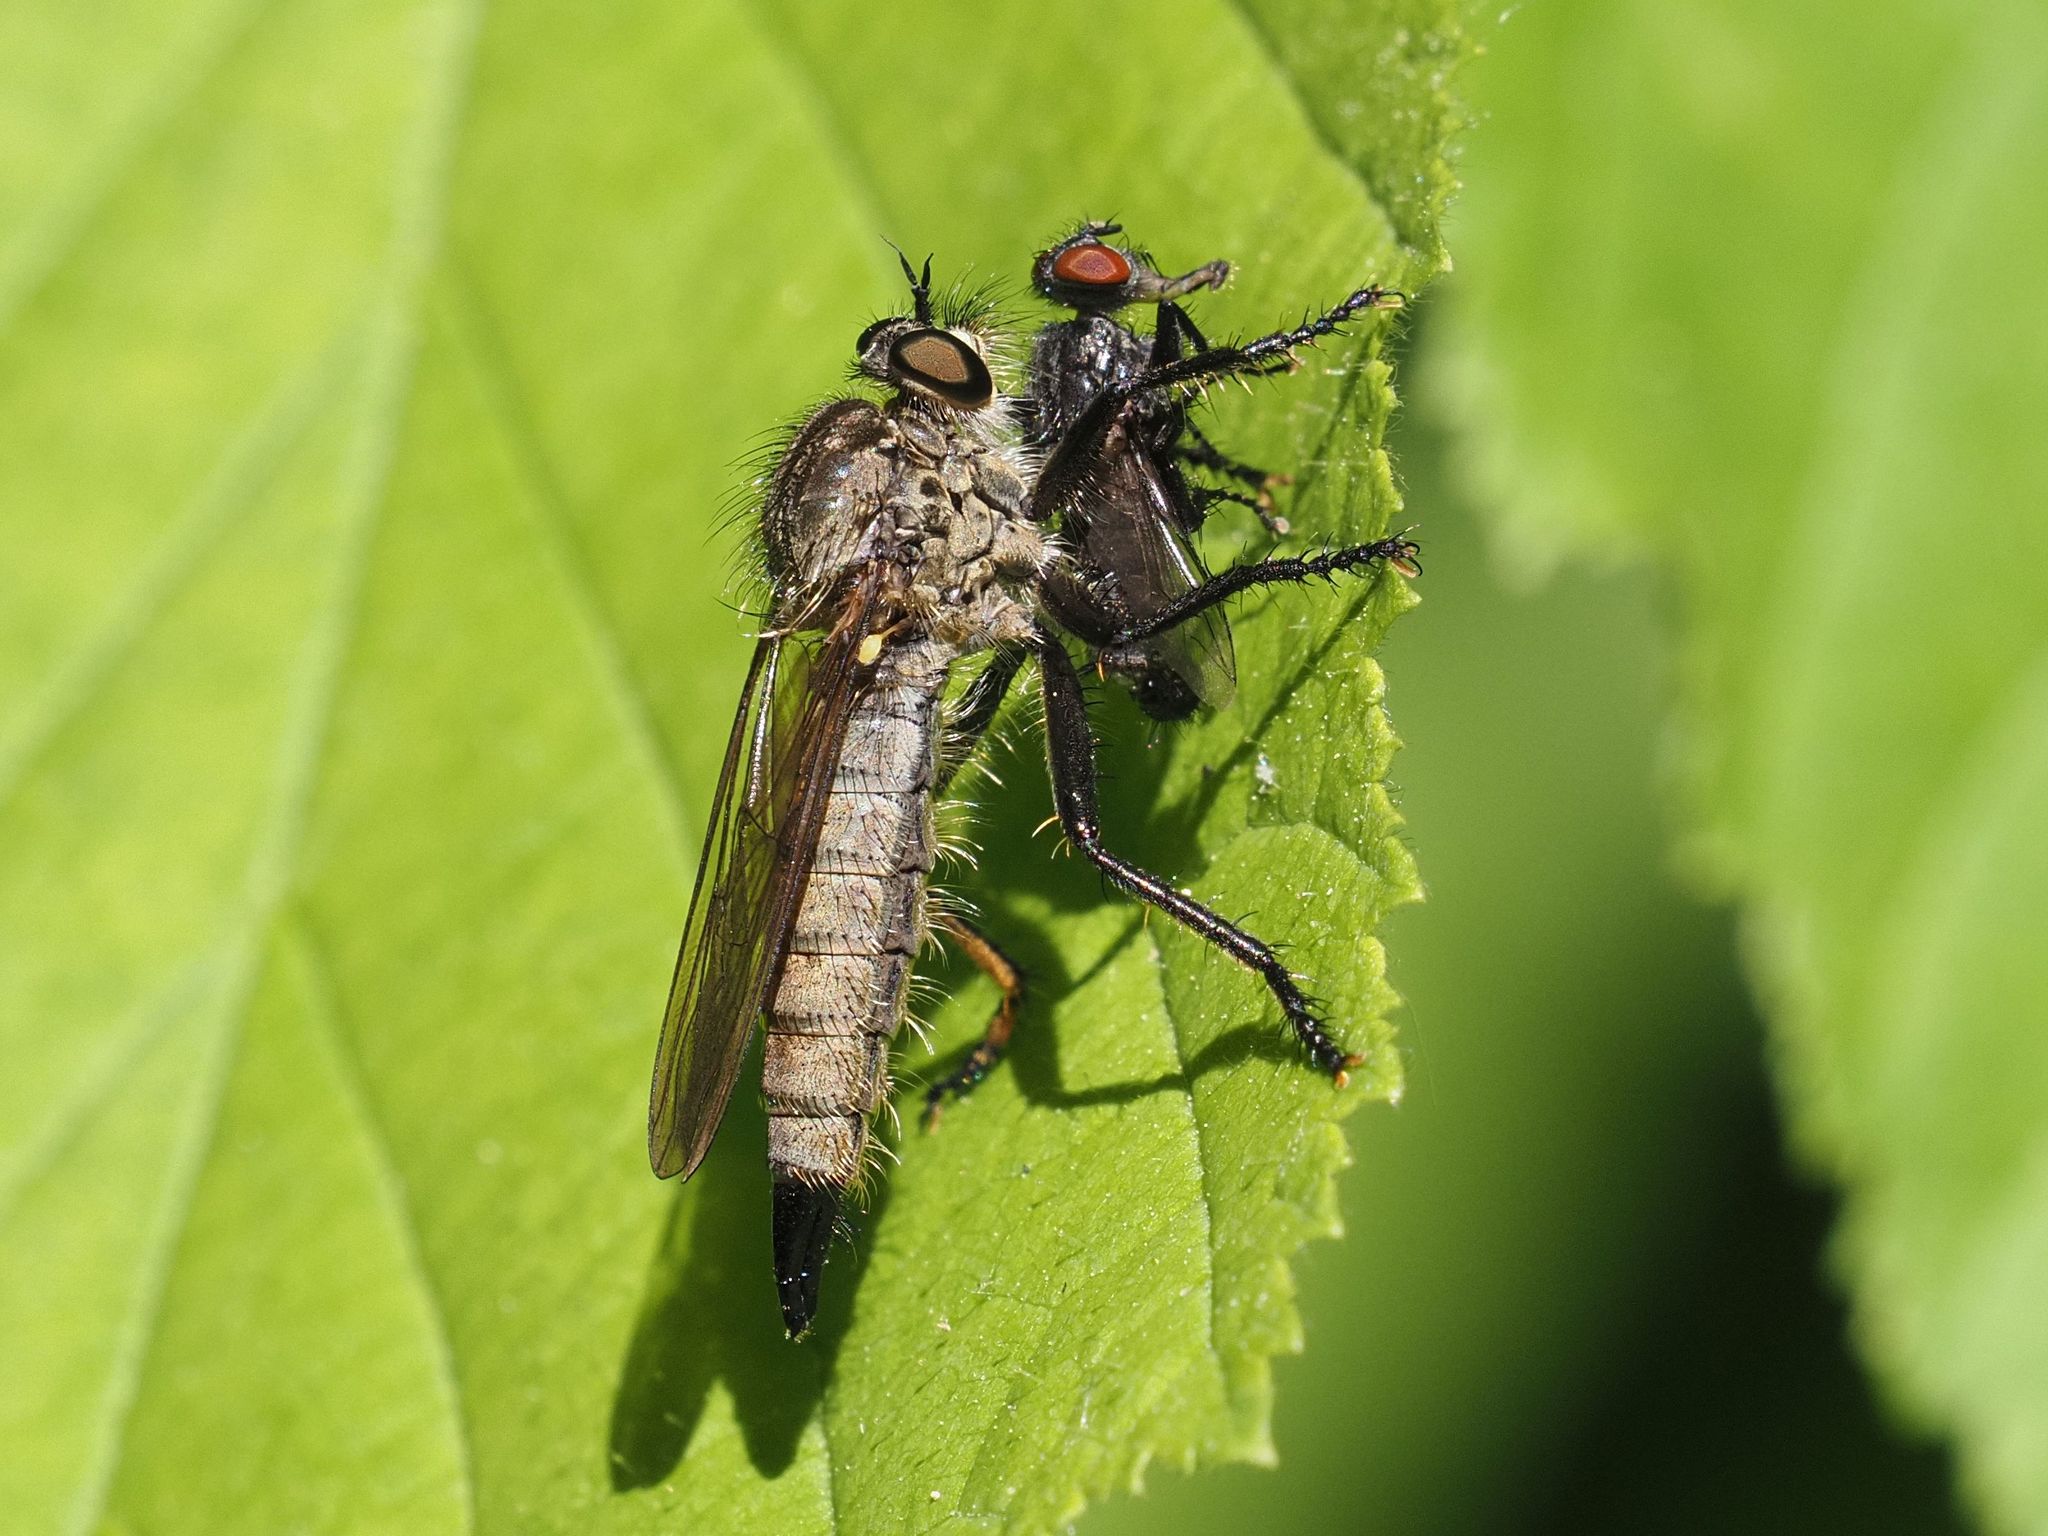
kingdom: Animalia
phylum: Arthropoda
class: Insecta
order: Diptera
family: Asilidae
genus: Didysmachus
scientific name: Didysmachus picipes
